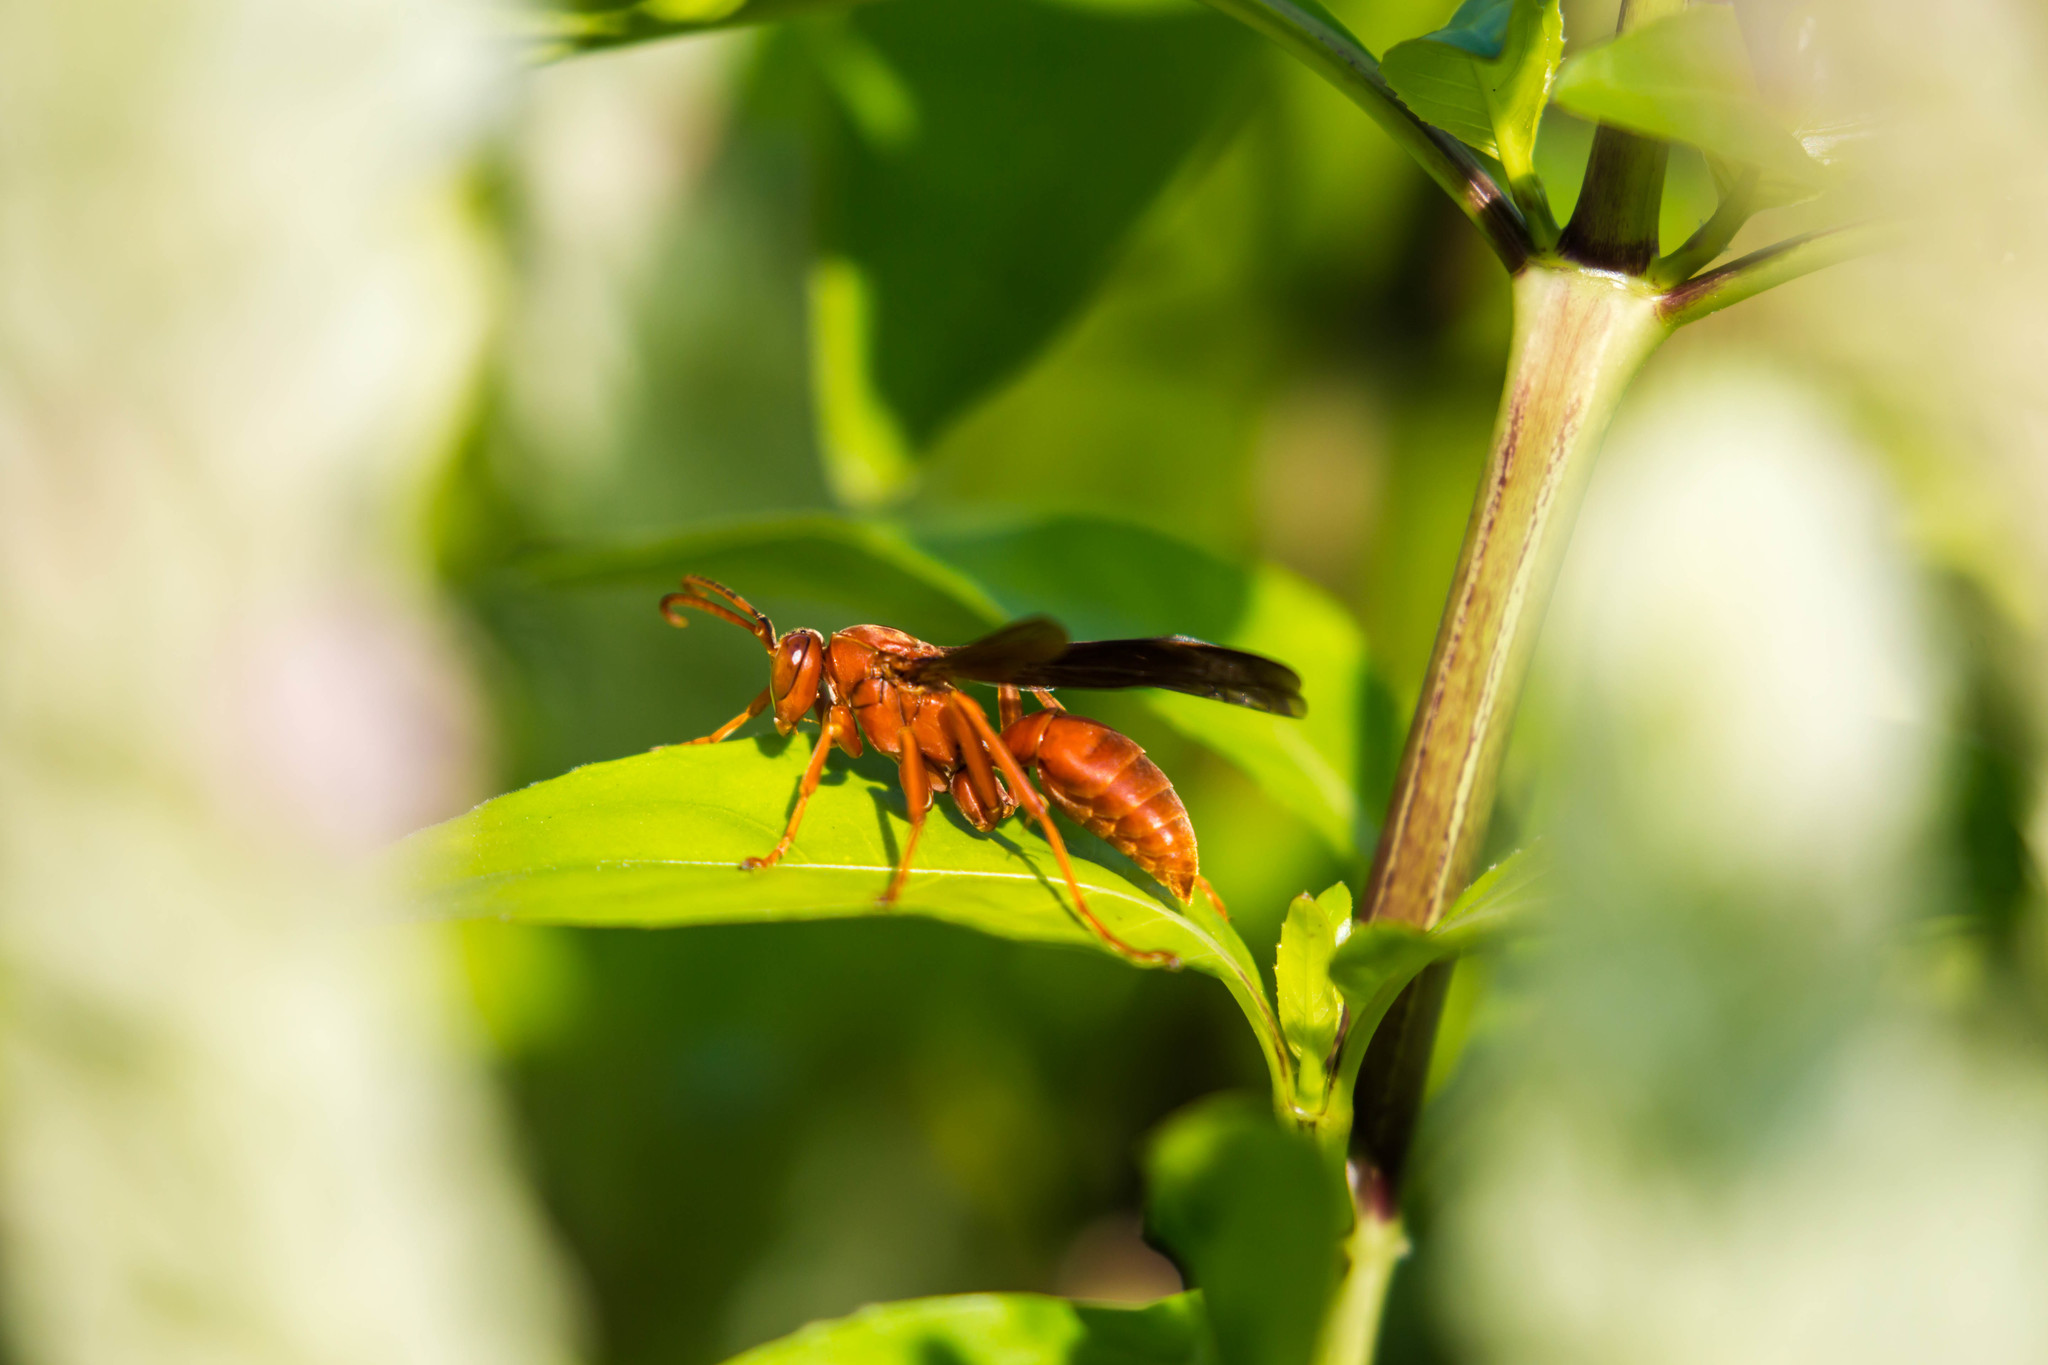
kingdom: Animalia
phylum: Arthropoda
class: Insecta
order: Hymenoptera
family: Vespidae
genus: Fuscopolistes
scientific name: Fuscopolistes
